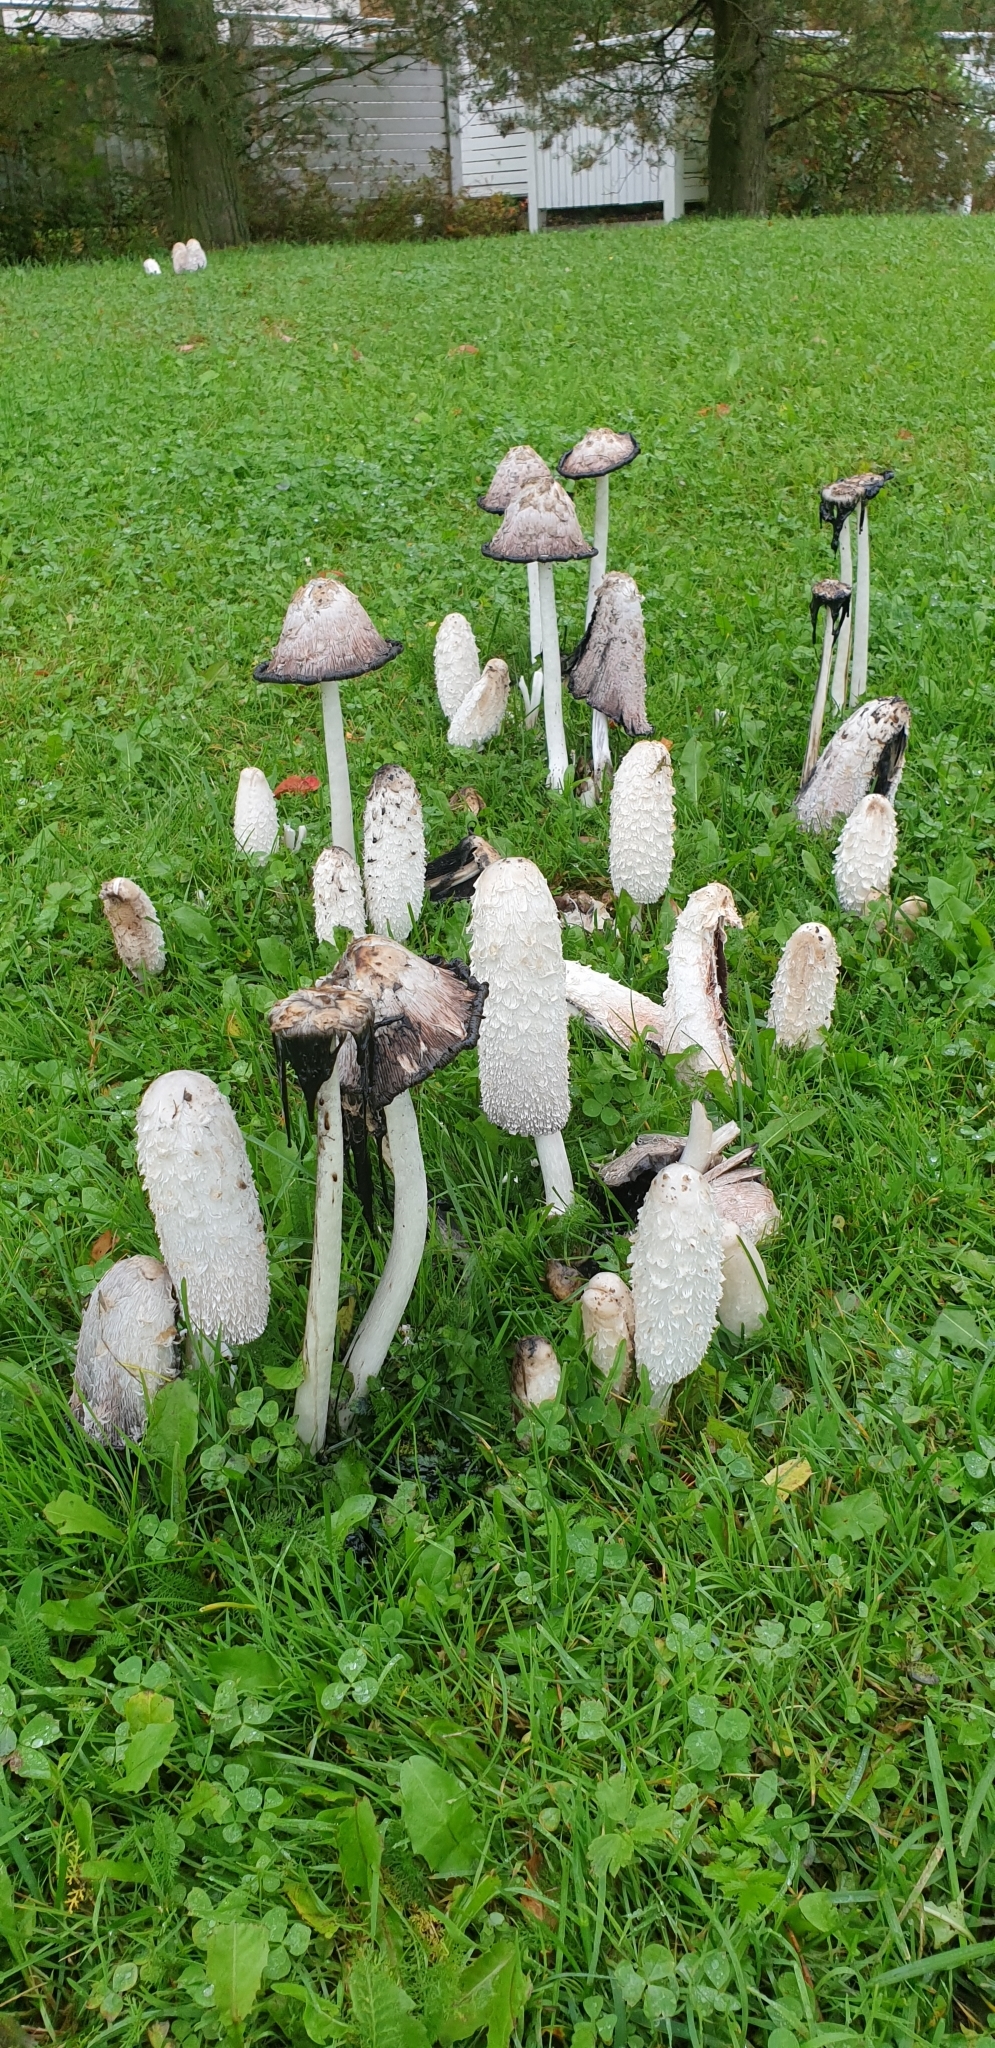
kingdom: Fungi
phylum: Basidiomycota
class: Agaricomycetes
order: Agaricales
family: Agaricaceae
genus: Coprinus
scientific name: Coprinus comatus
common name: Lawyer's wig
